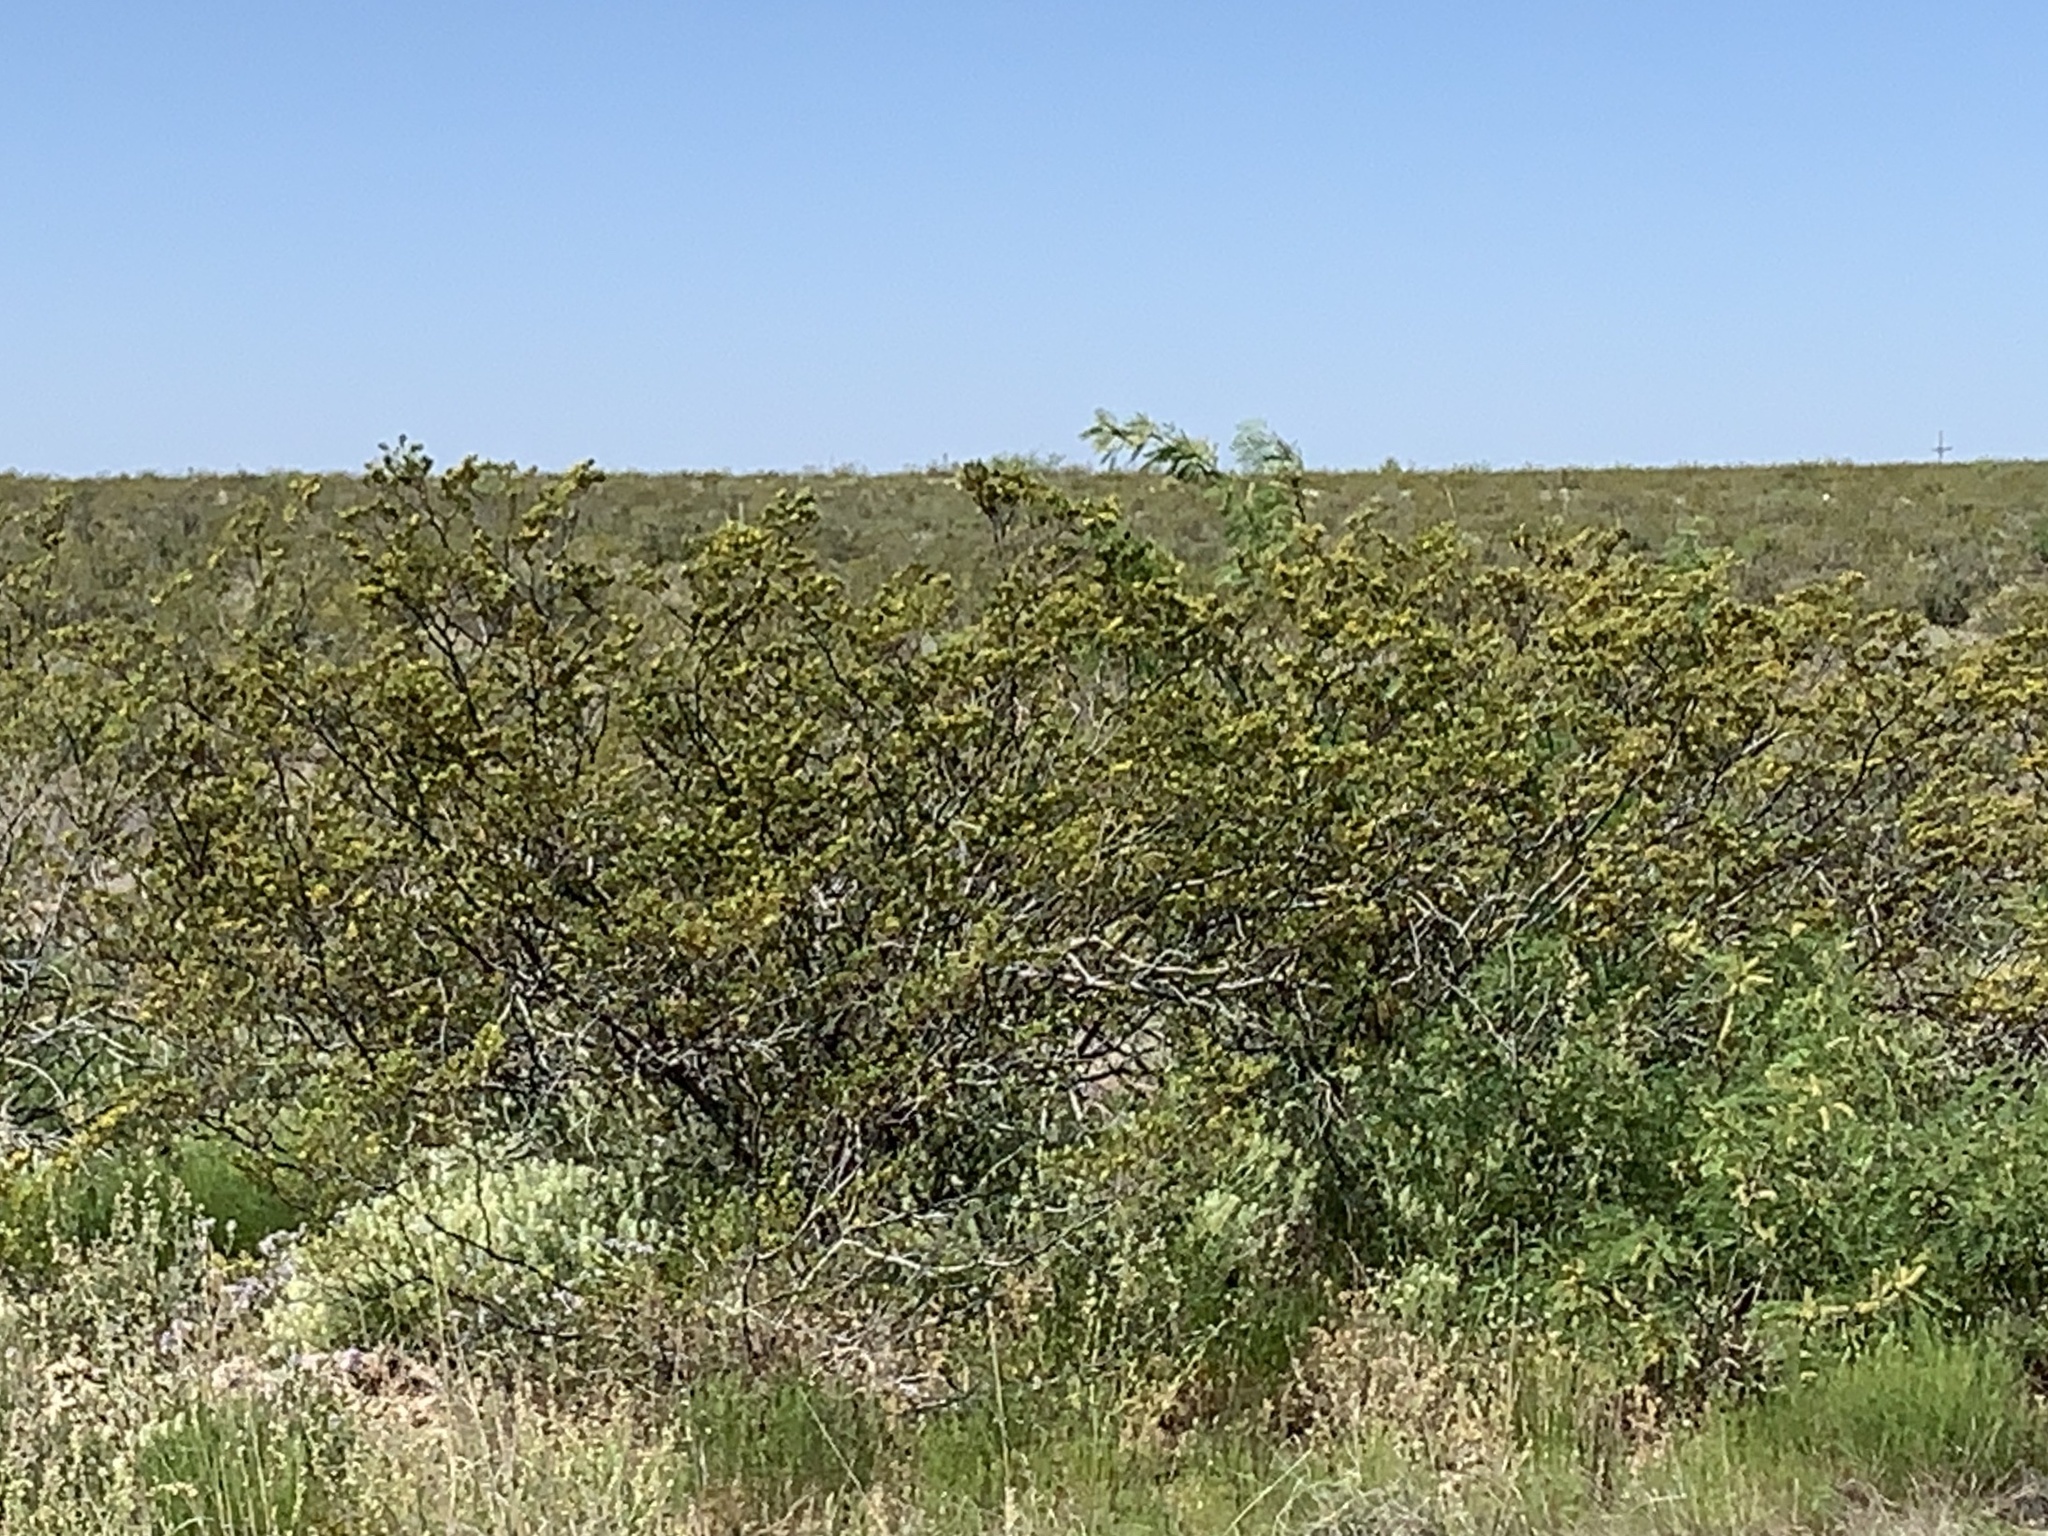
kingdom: Plantae
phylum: Tracheophyta
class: Magnoliopsida
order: Zygophyllales
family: Zygophyllaceae
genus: Larrea
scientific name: Larrea tridentata
